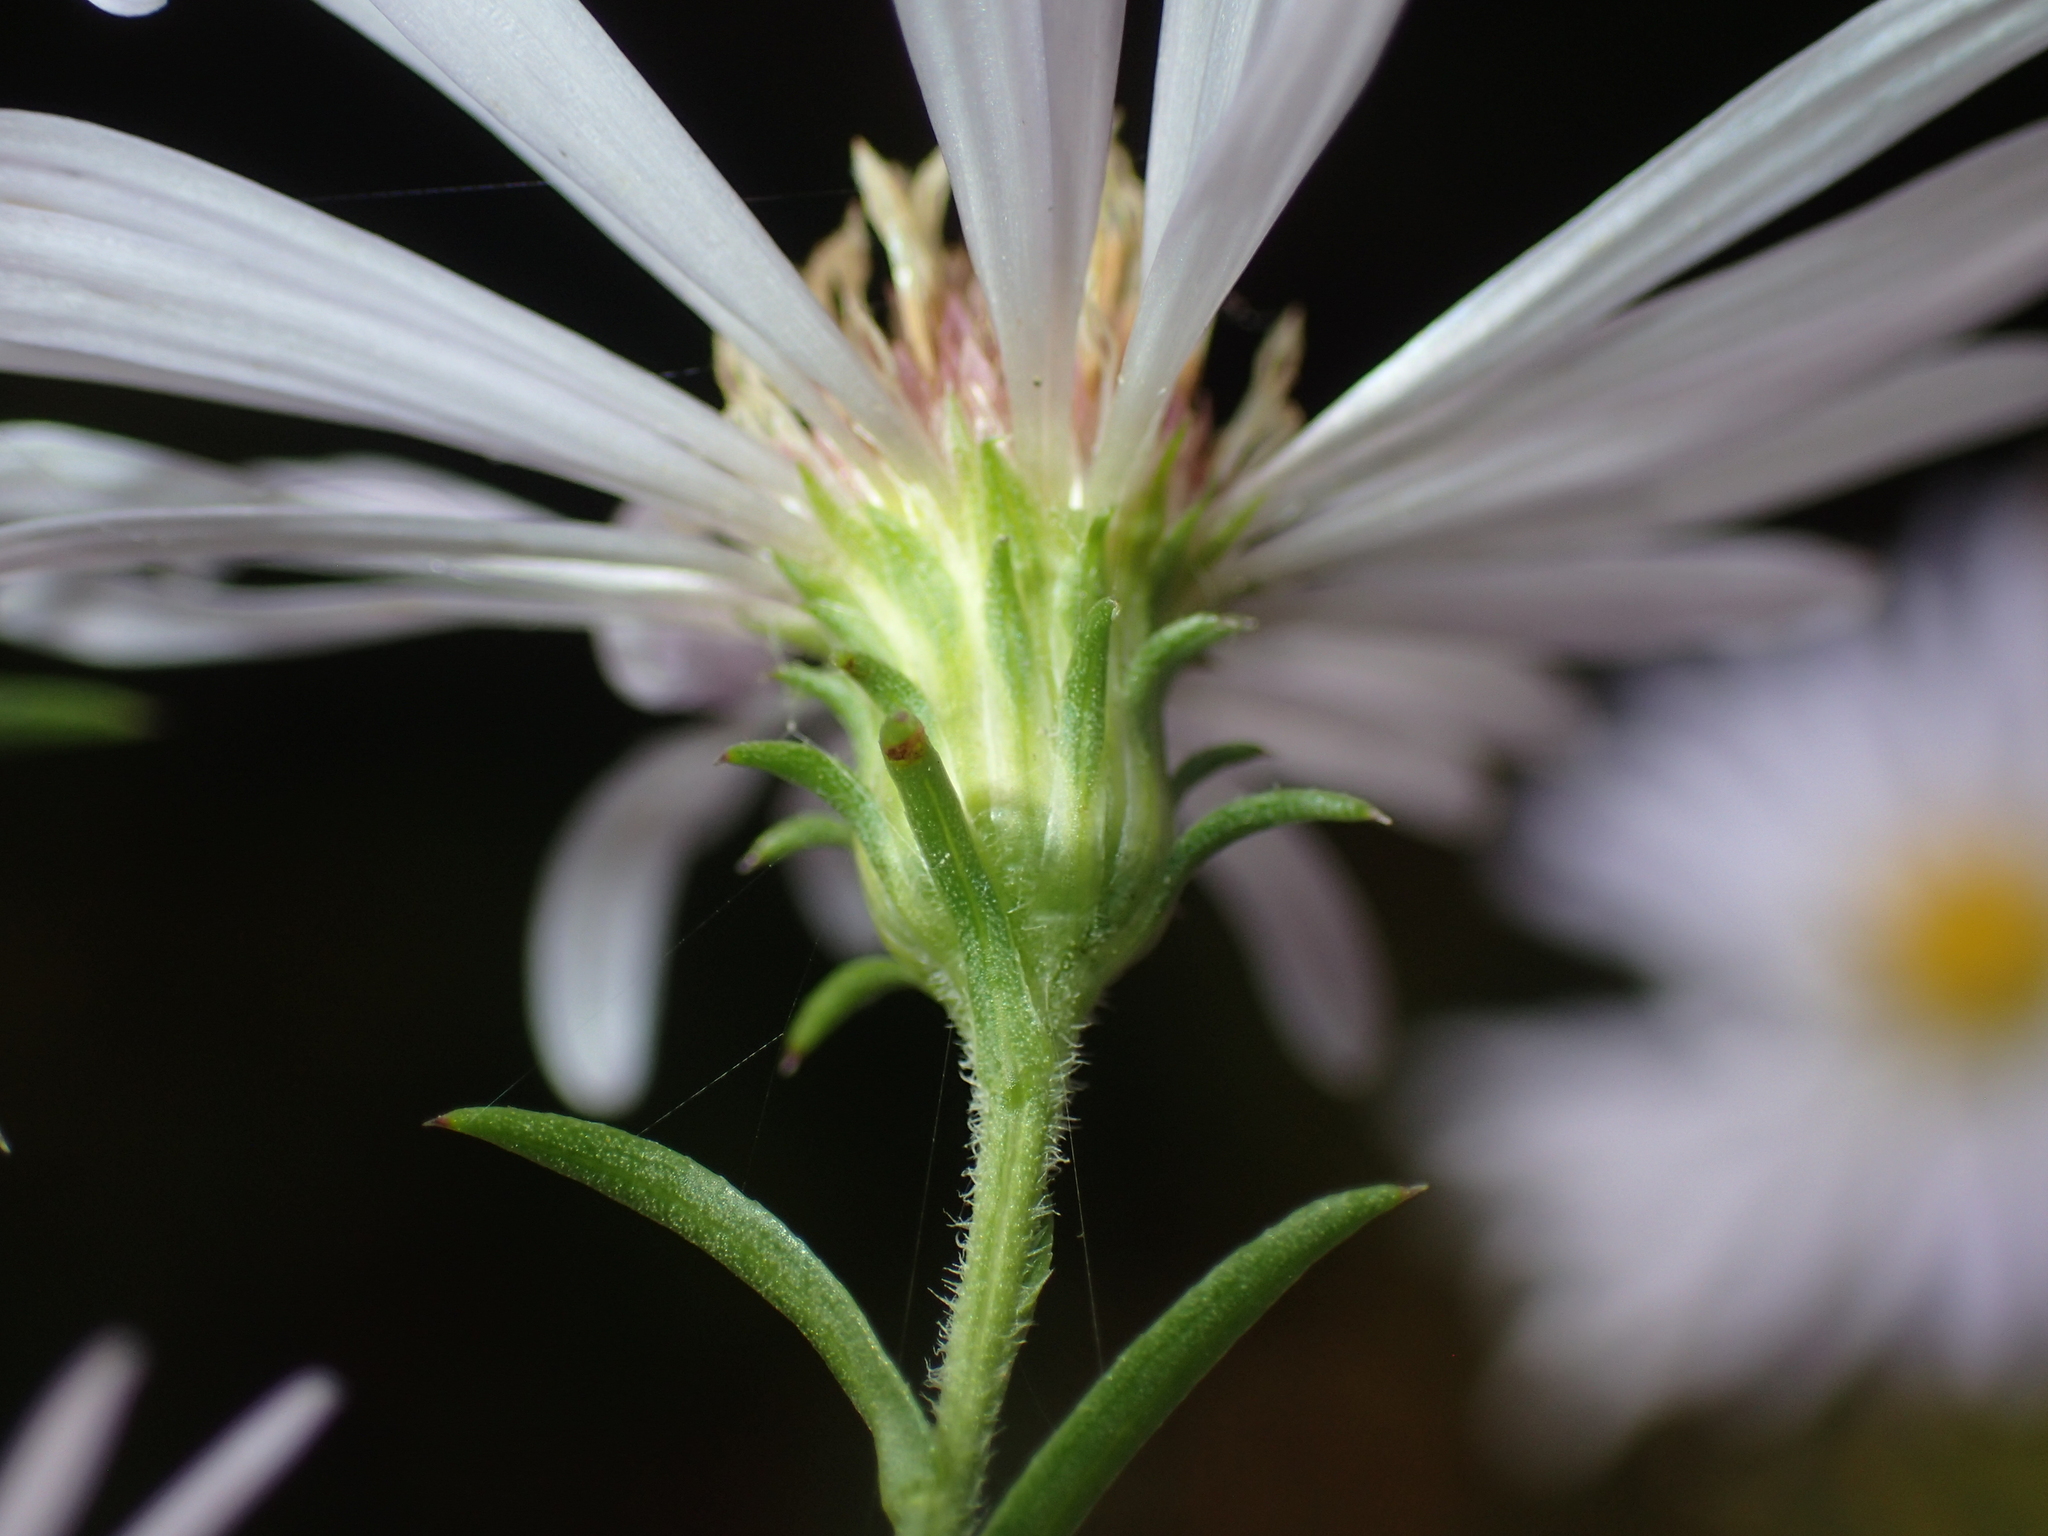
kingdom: Plantae
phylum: Tracheophyta
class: Magnoliopsida
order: Asterales
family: Asteraceae
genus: Symphyotrichum
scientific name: Symphyotrichum puniceum
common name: Bog aster
